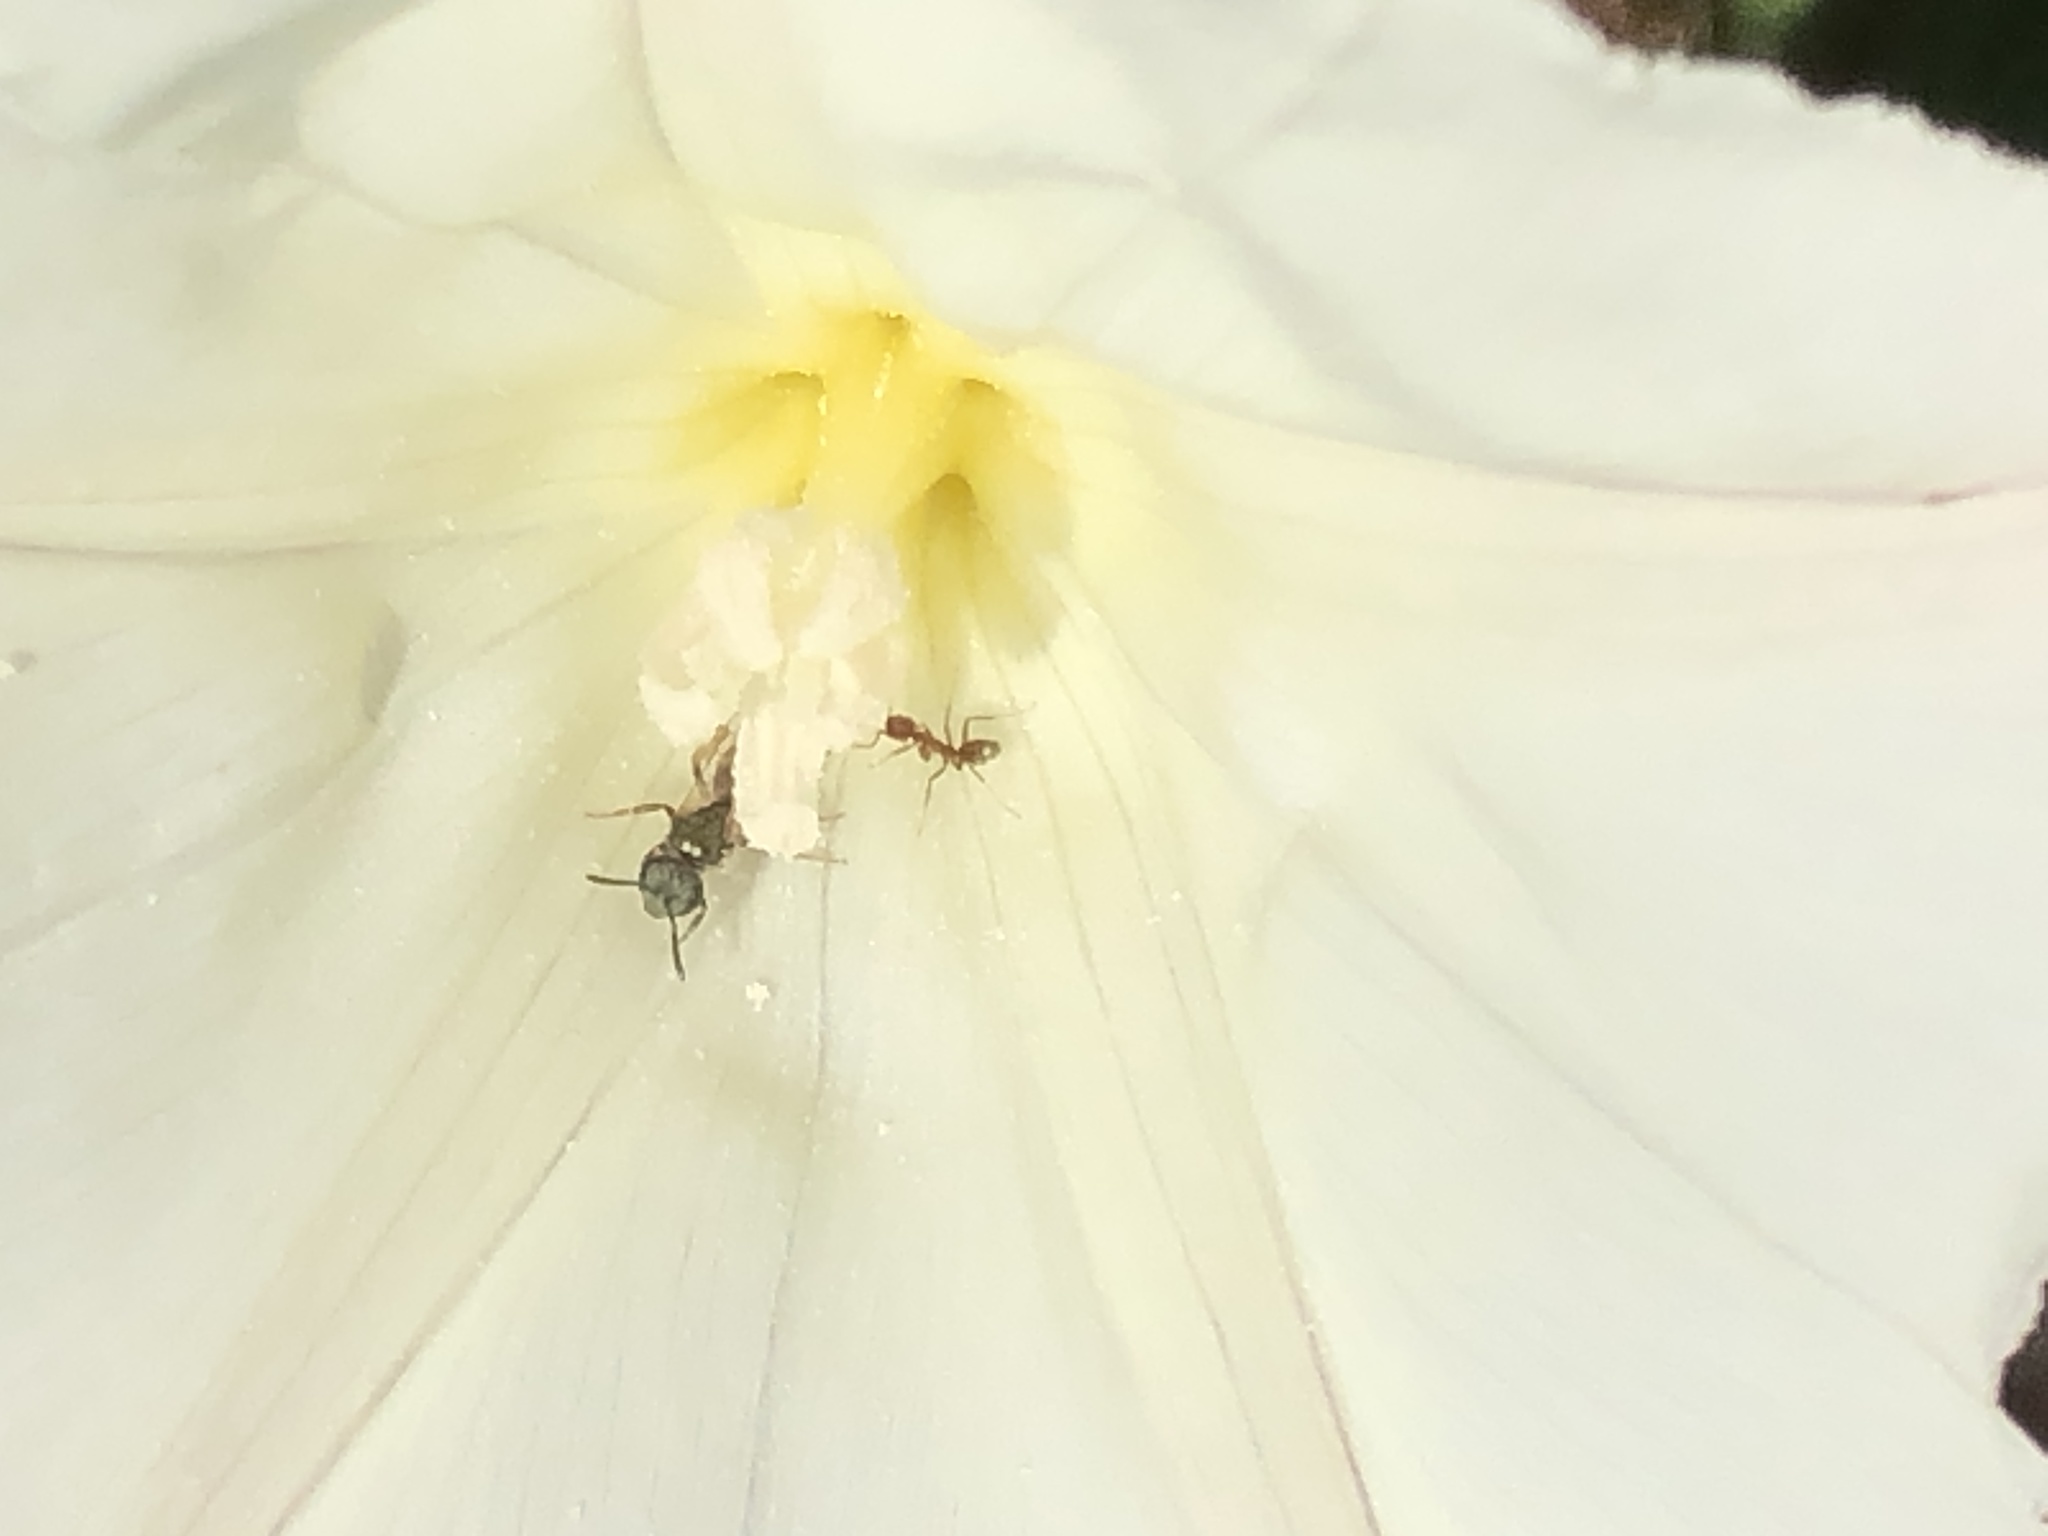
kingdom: Animalia
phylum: Arthropoda
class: Insecta
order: Hymenoptera
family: Halictidae
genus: Dialictus
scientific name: Dialictus
